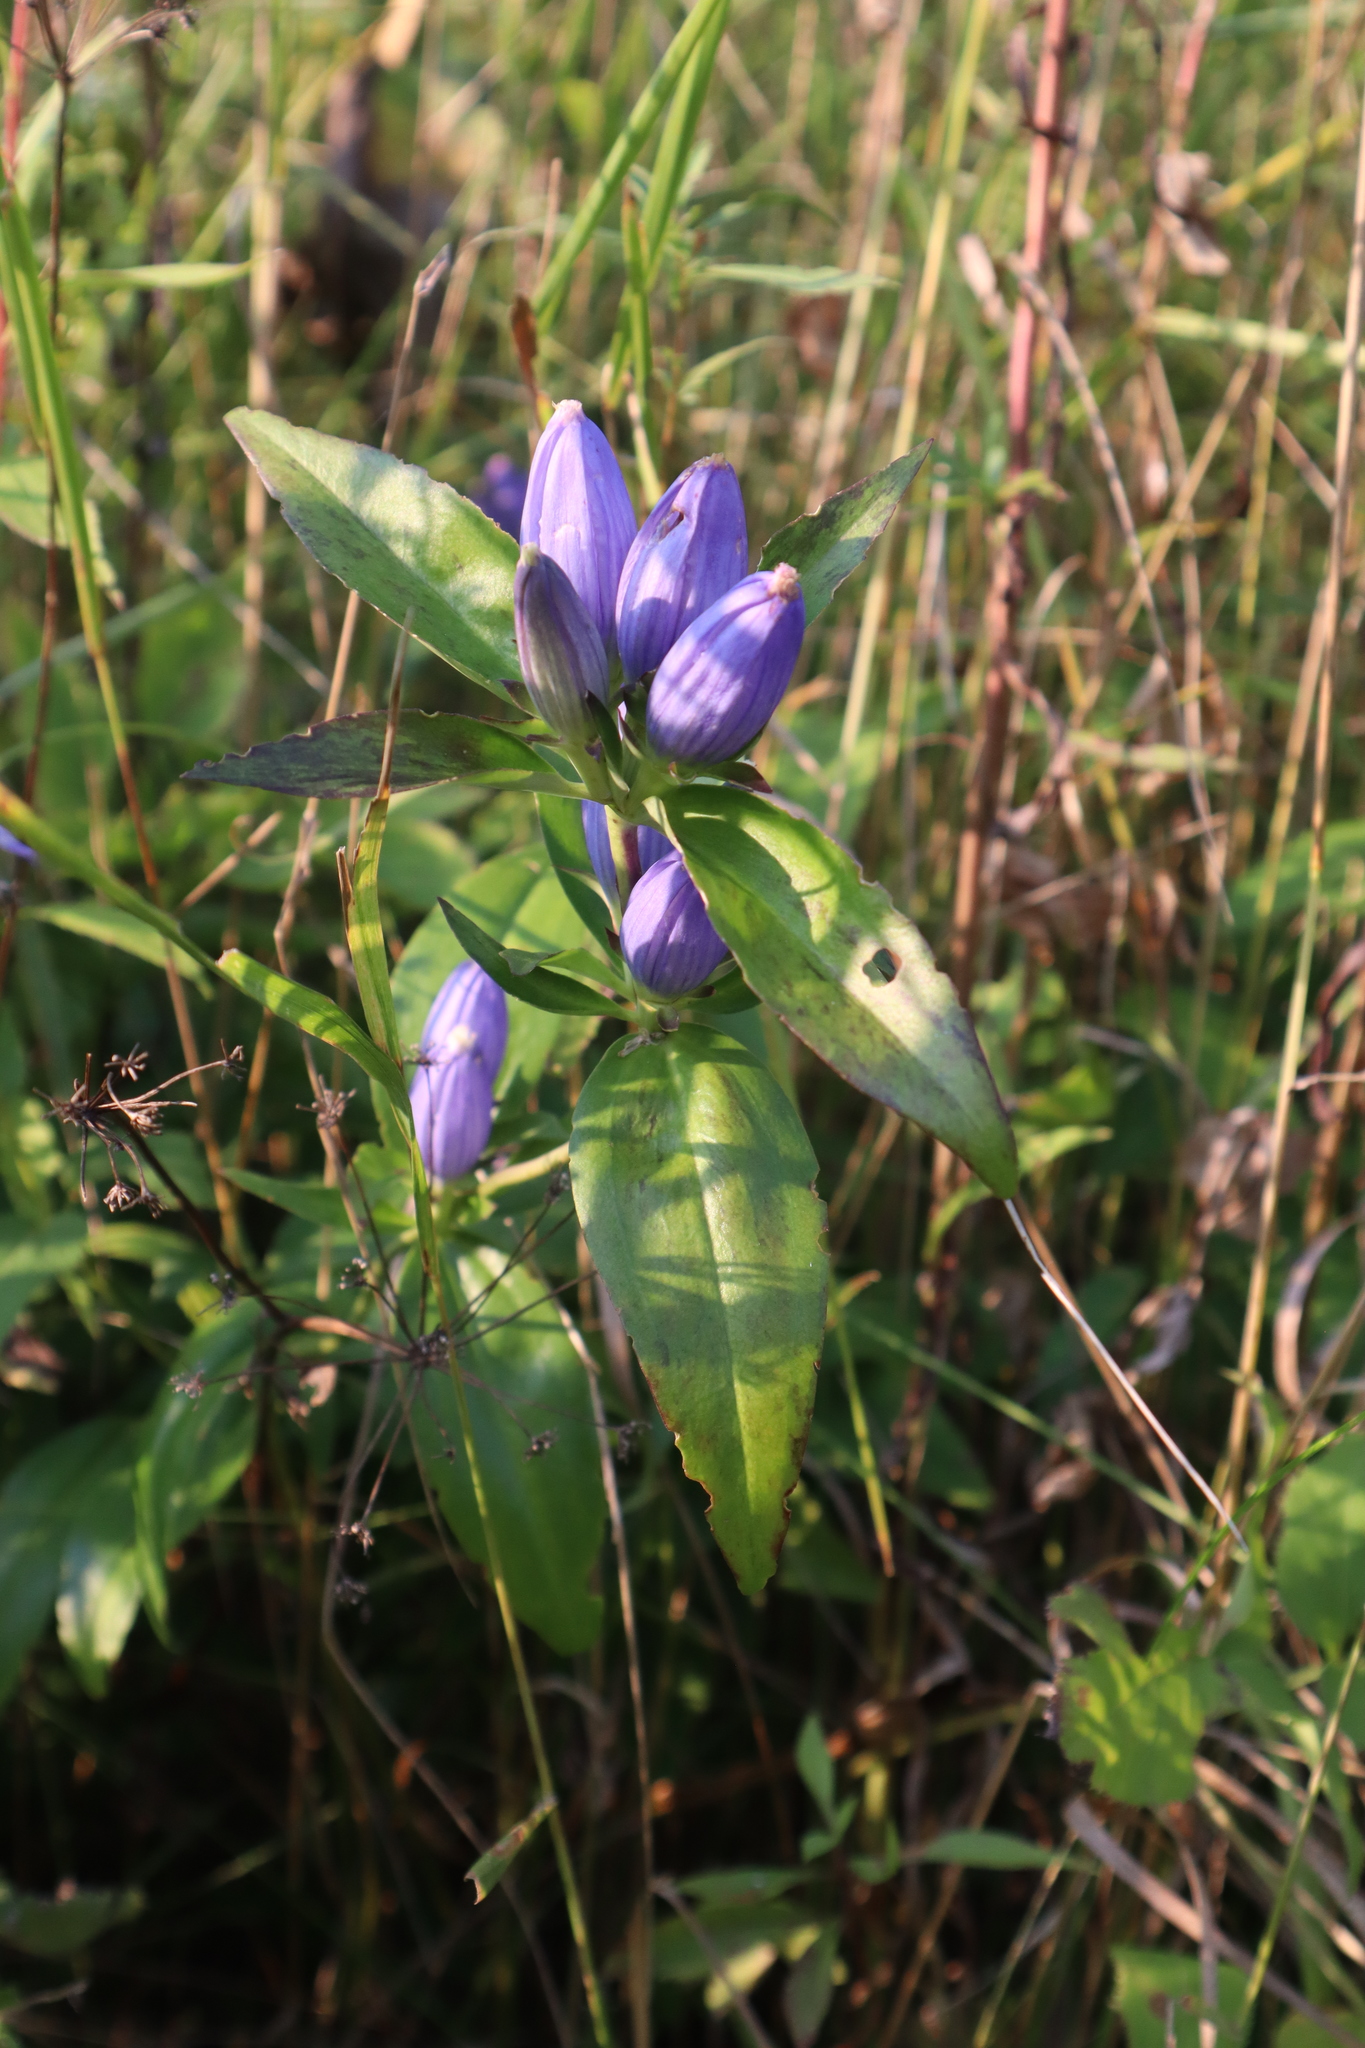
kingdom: Plantae
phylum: Tracheophyta
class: Magnoliopsida
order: Gentianales
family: Gentianaceae
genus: Gentiana
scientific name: Gentiana andrewsii
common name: Bottle gentian
